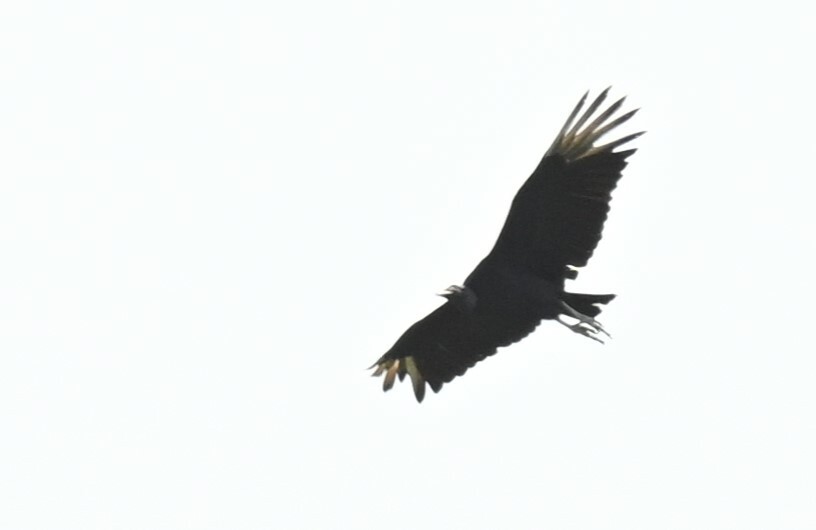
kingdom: Animalia
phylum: Chordata
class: Aves
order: Accipitriformes
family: Cathartidae
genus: Coragyps
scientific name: Coragyps atratus
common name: Black vulture
